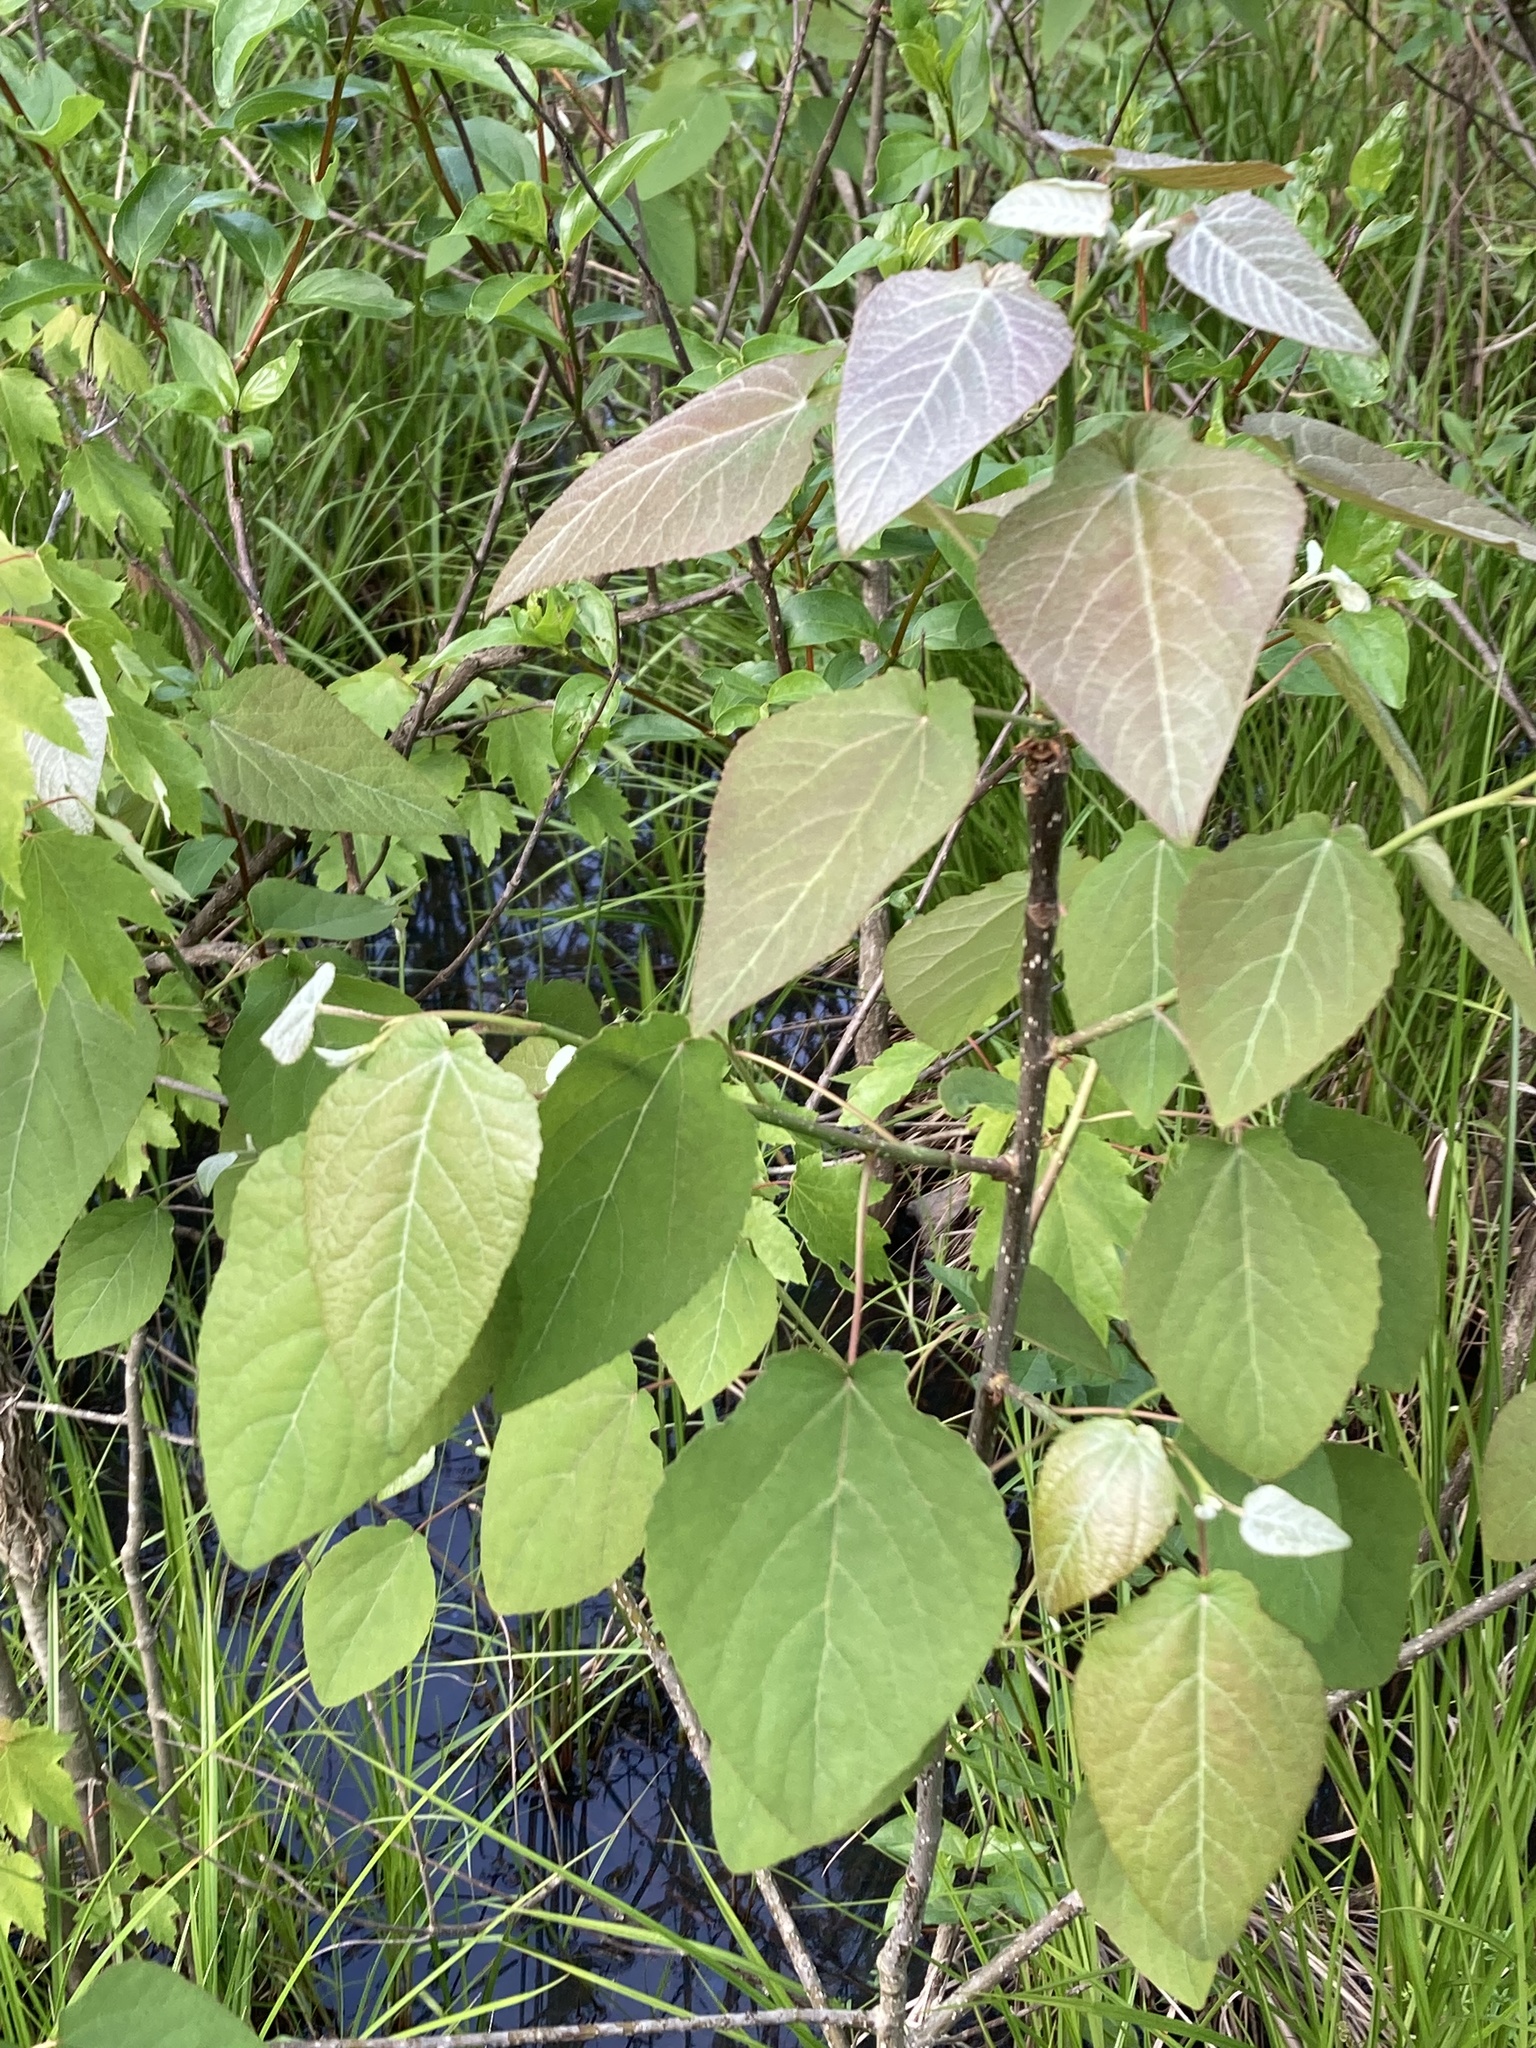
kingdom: Plantae
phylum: Tracheophyta
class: Magnoliopsida
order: Malpighiales
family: Salicaceae
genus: Populus
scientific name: Populus heterophylla
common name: Downy poplar
